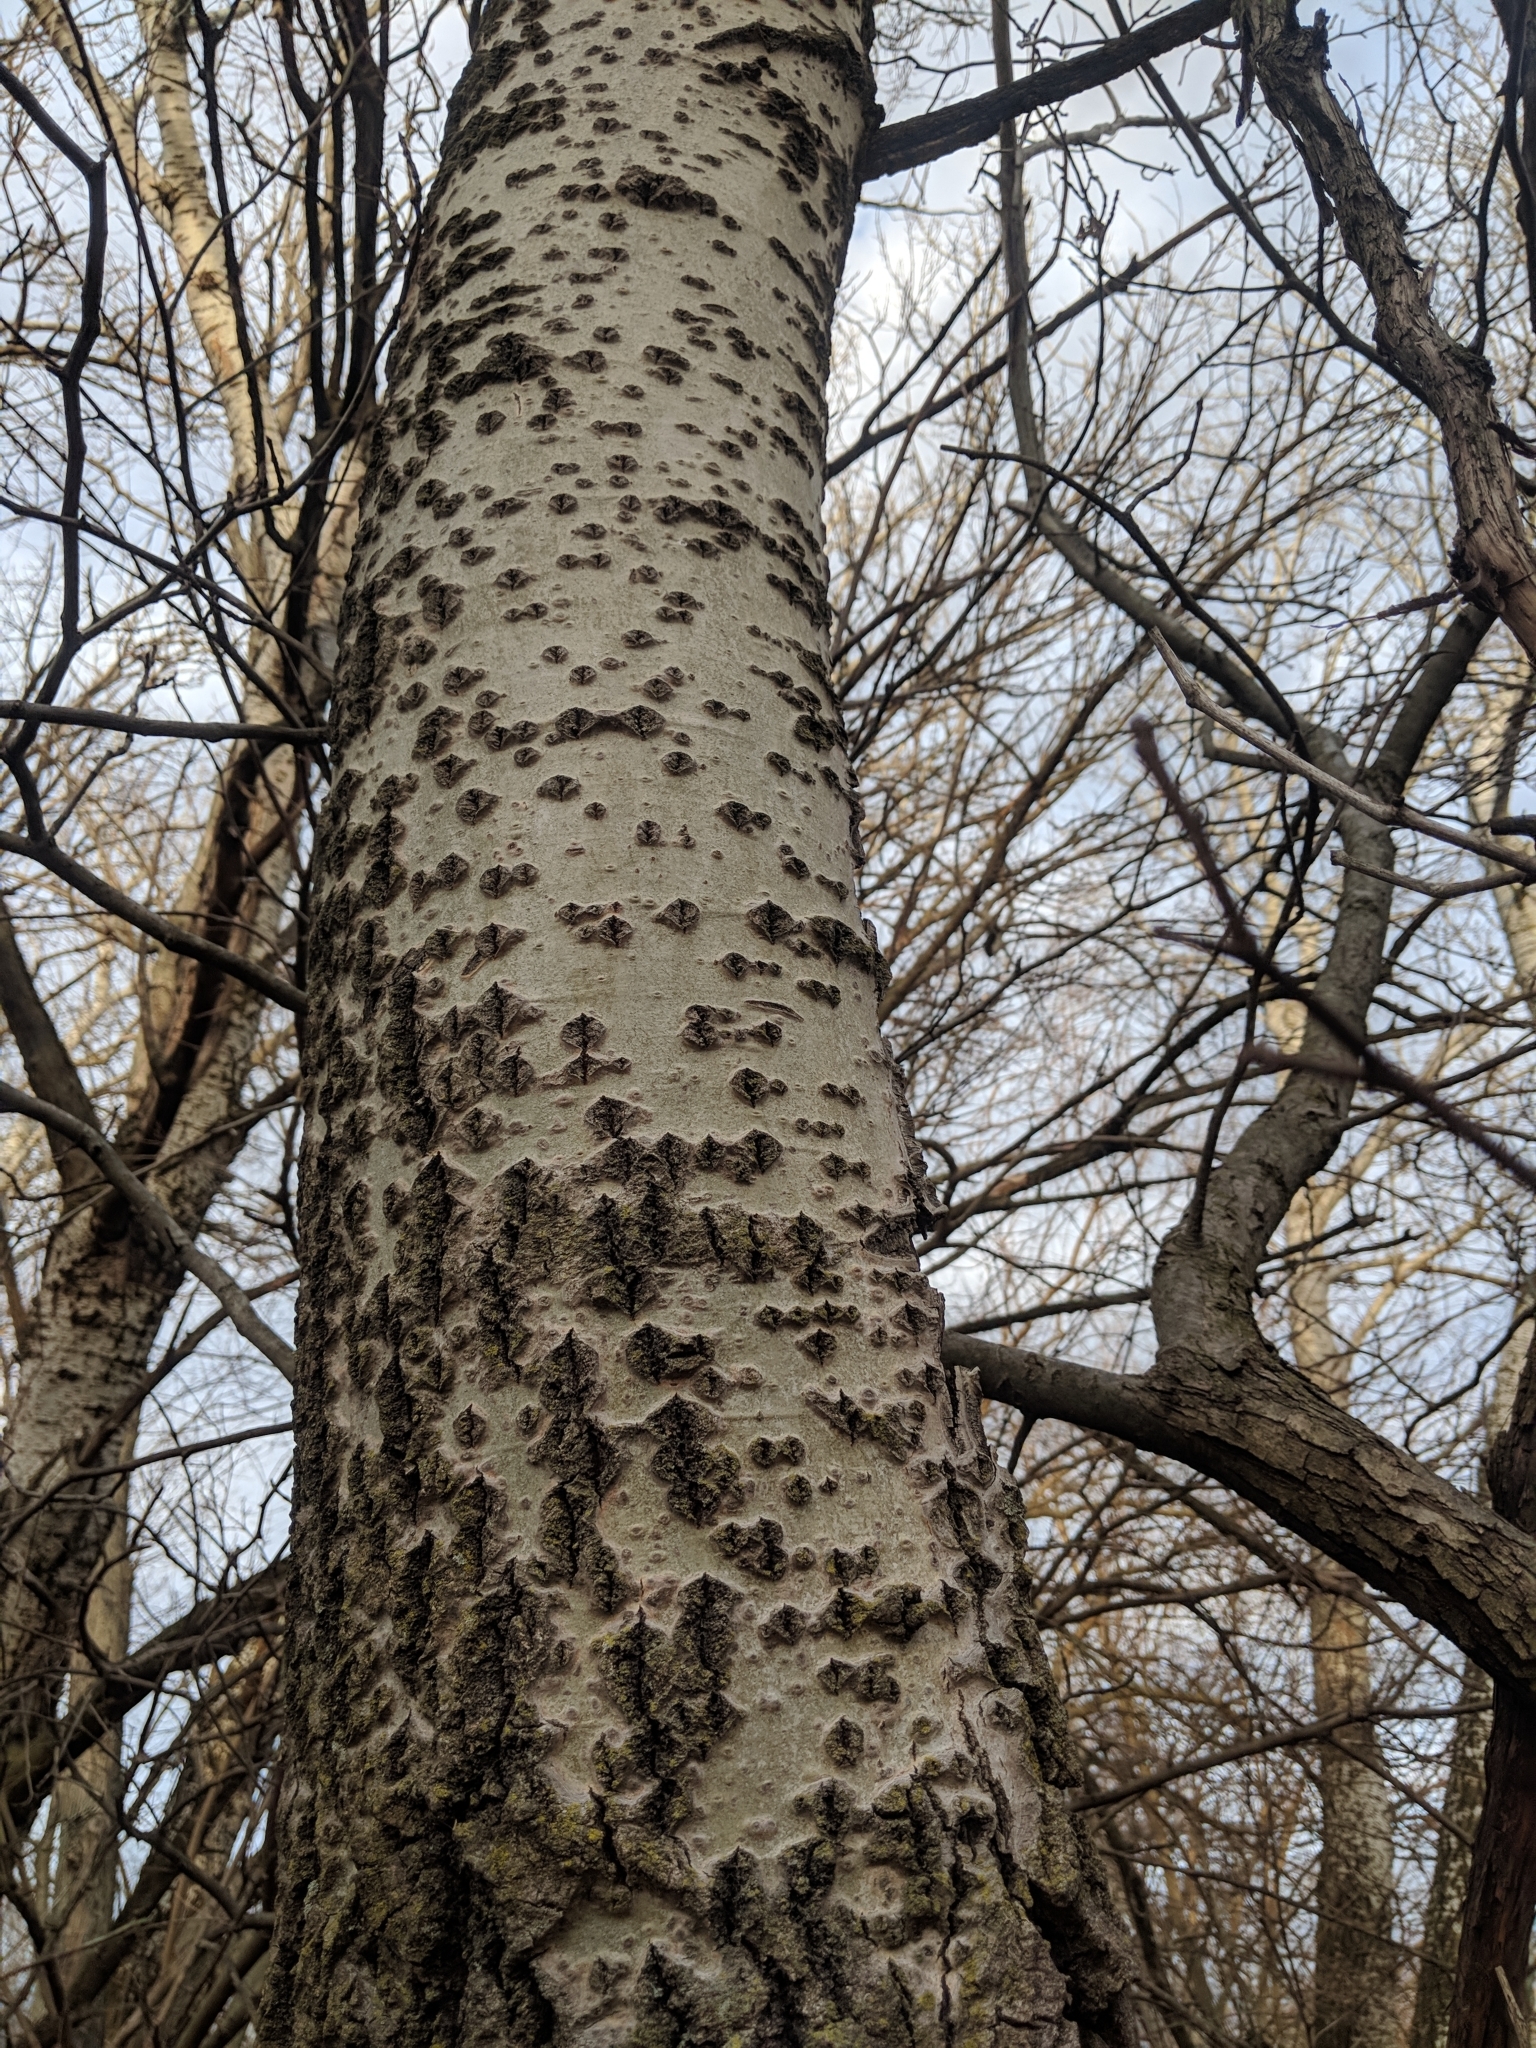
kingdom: Plantae
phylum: Tracheophyta
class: Magnoliopsida
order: Malpighiales
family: Salicaceae
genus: Populus
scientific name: Populus alba
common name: White poplar
